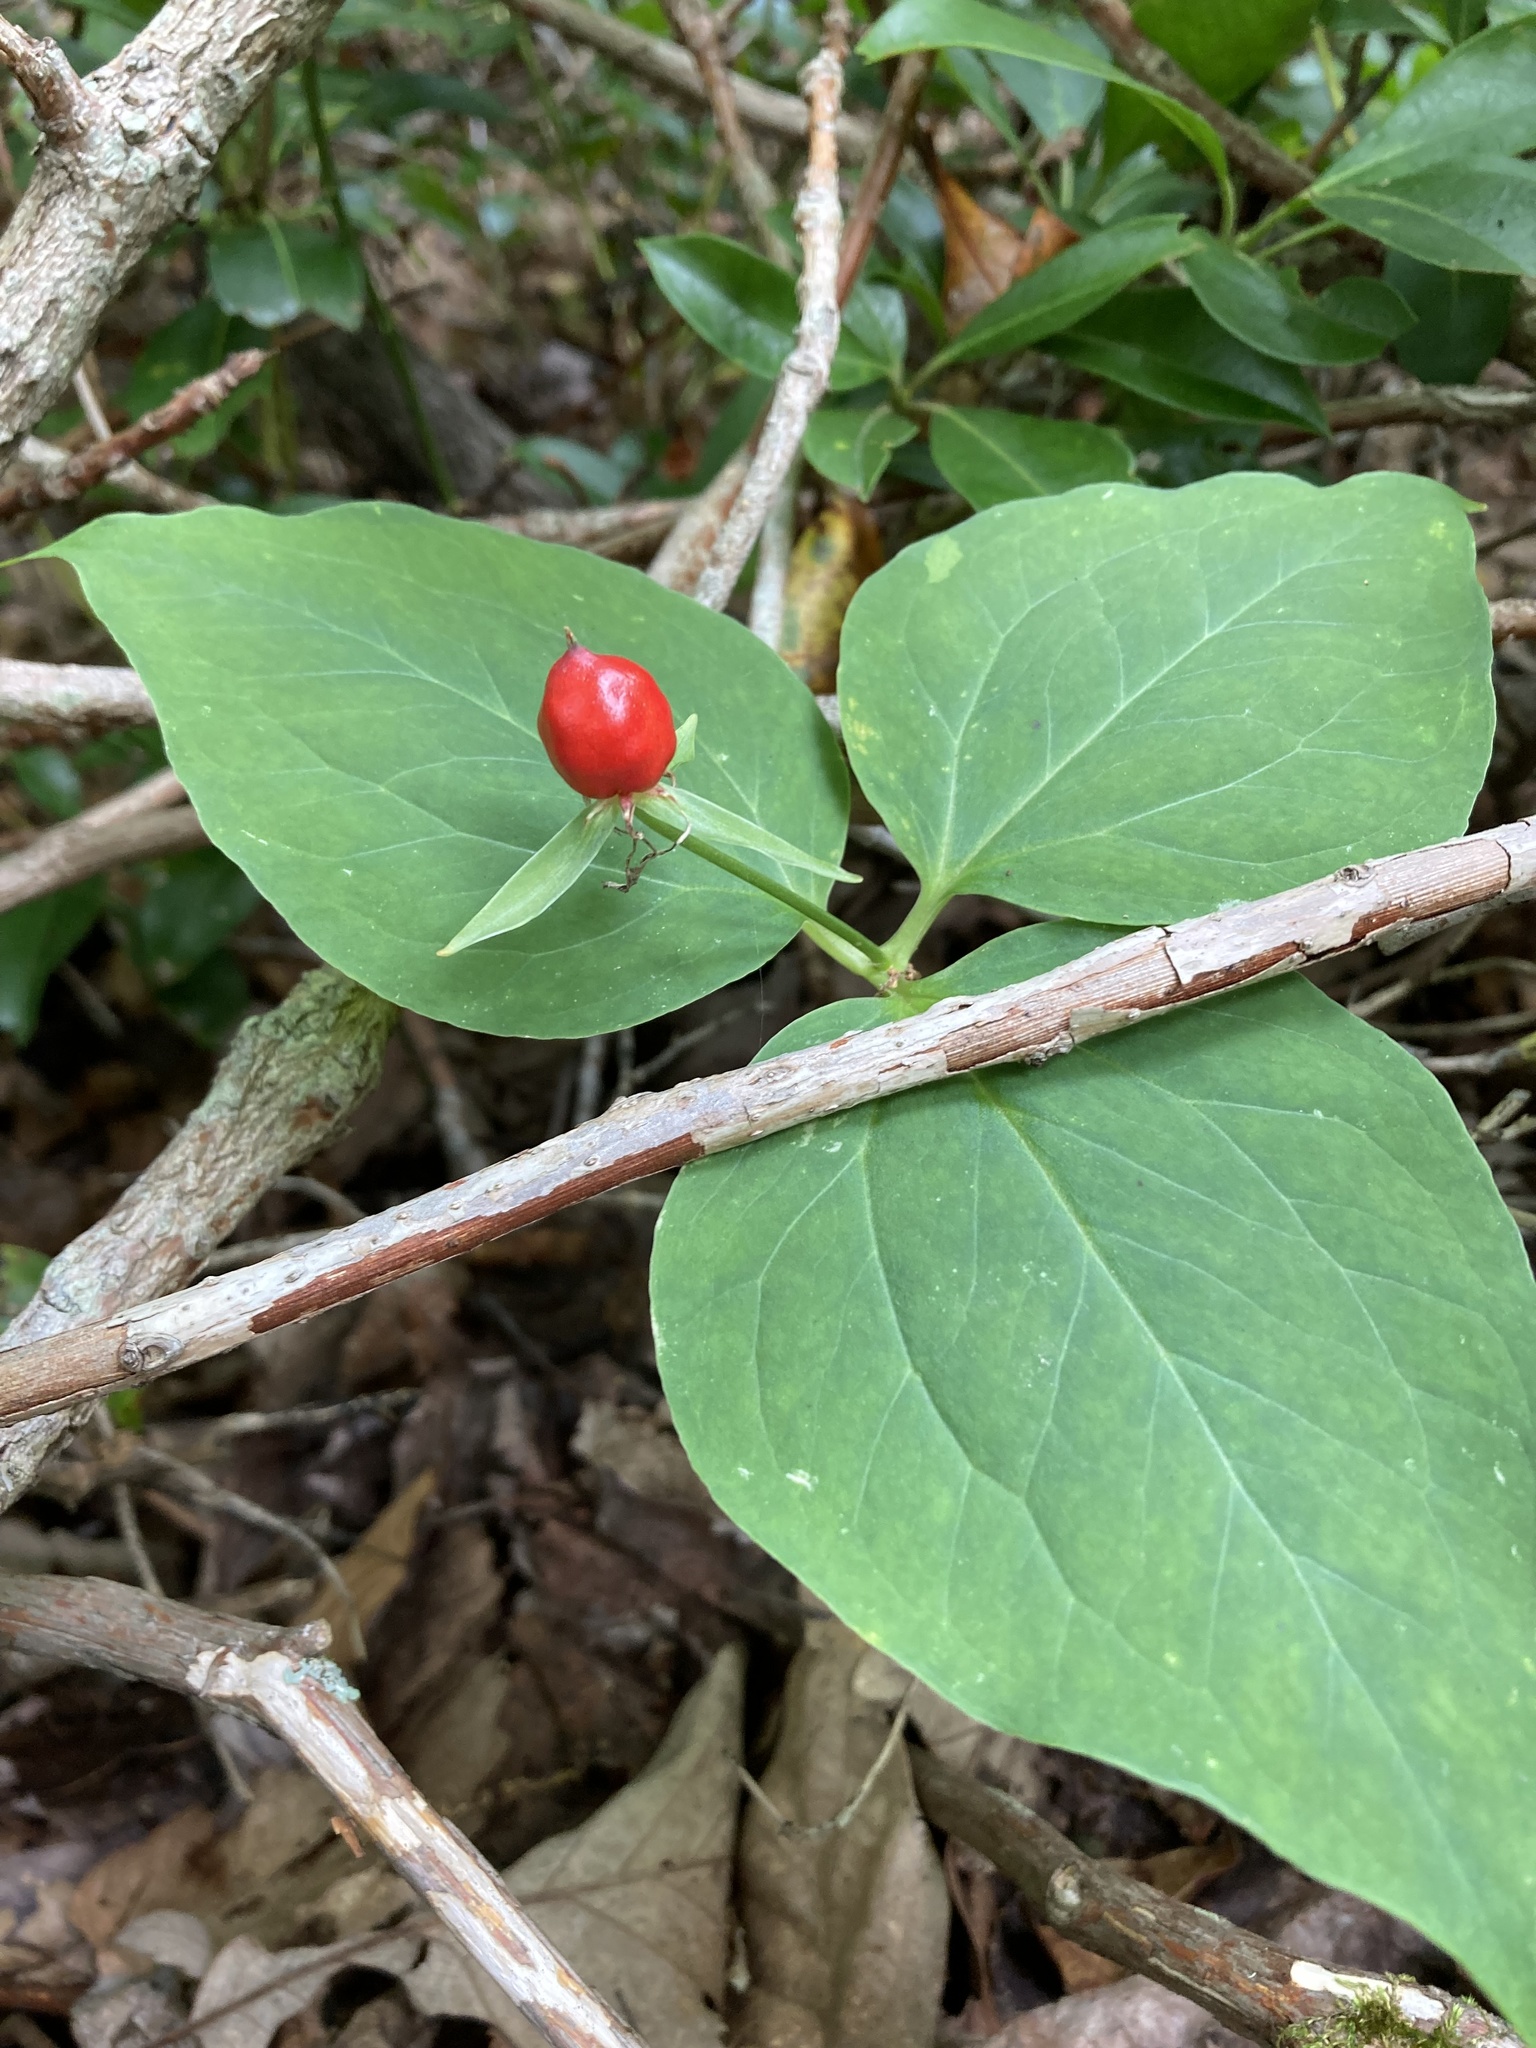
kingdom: Plantae
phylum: Tracheophyta
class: Liliopsida
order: Liliales
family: Melanthiaceae
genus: Trillium
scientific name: Trillium undulatum
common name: Paint trillium
